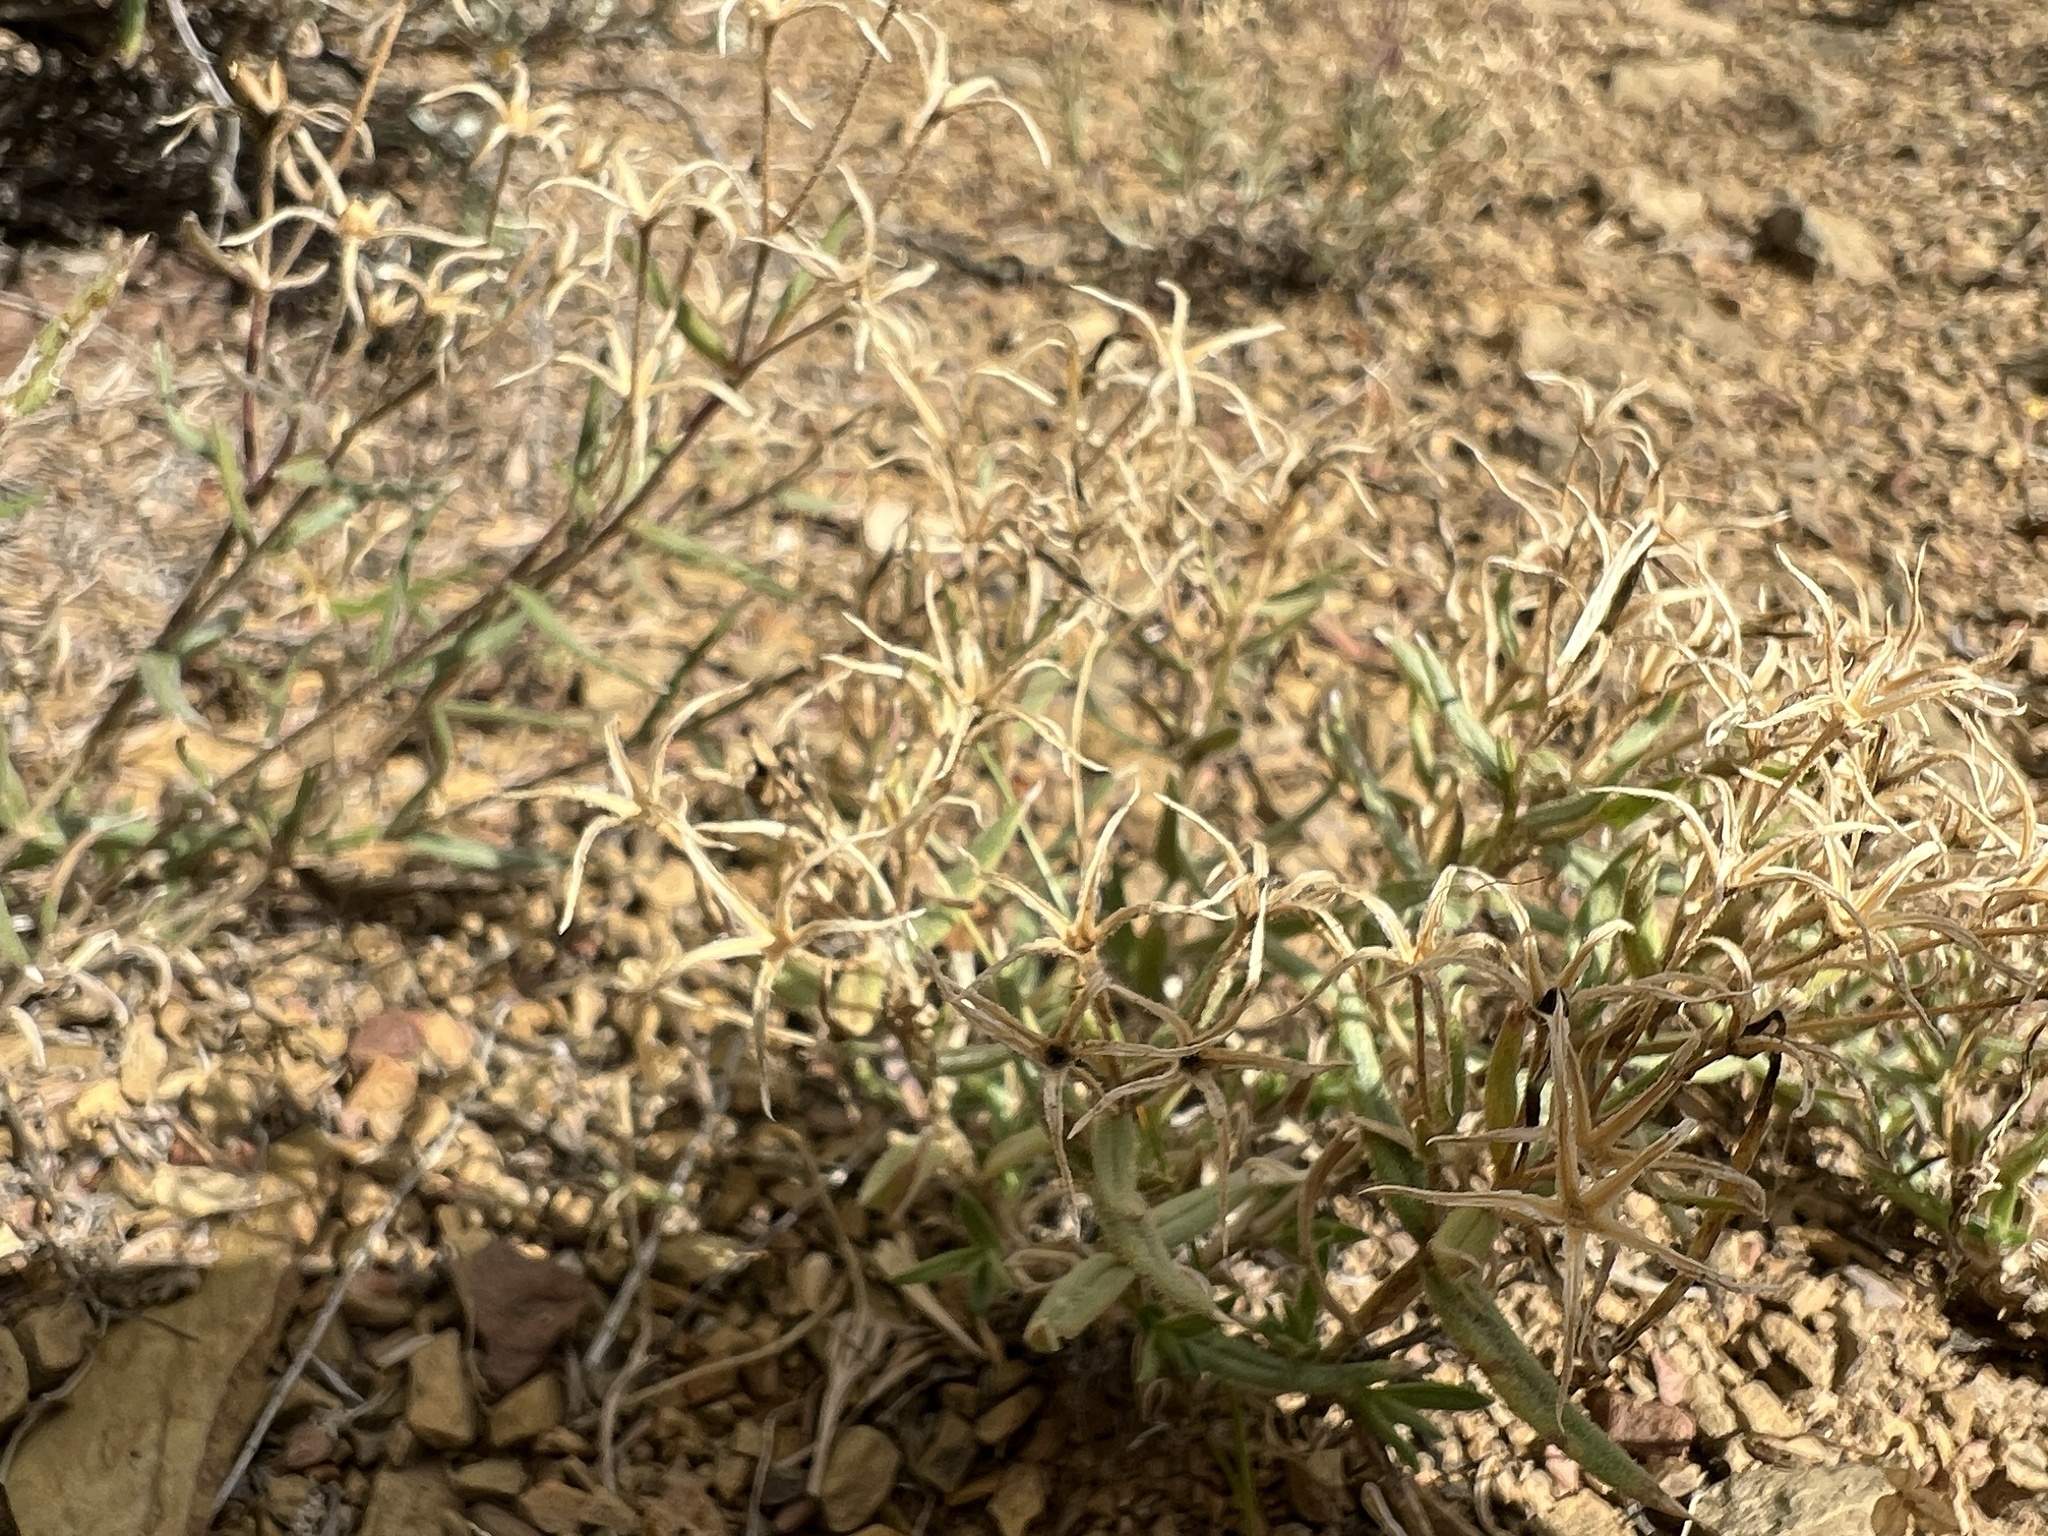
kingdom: Plantae
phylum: Tracheophyta
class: Magnoliopsida
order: Ericales
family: Polemoniaceae
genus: Phlox
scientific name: Phlox longifolia
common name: Longleaf phlox
